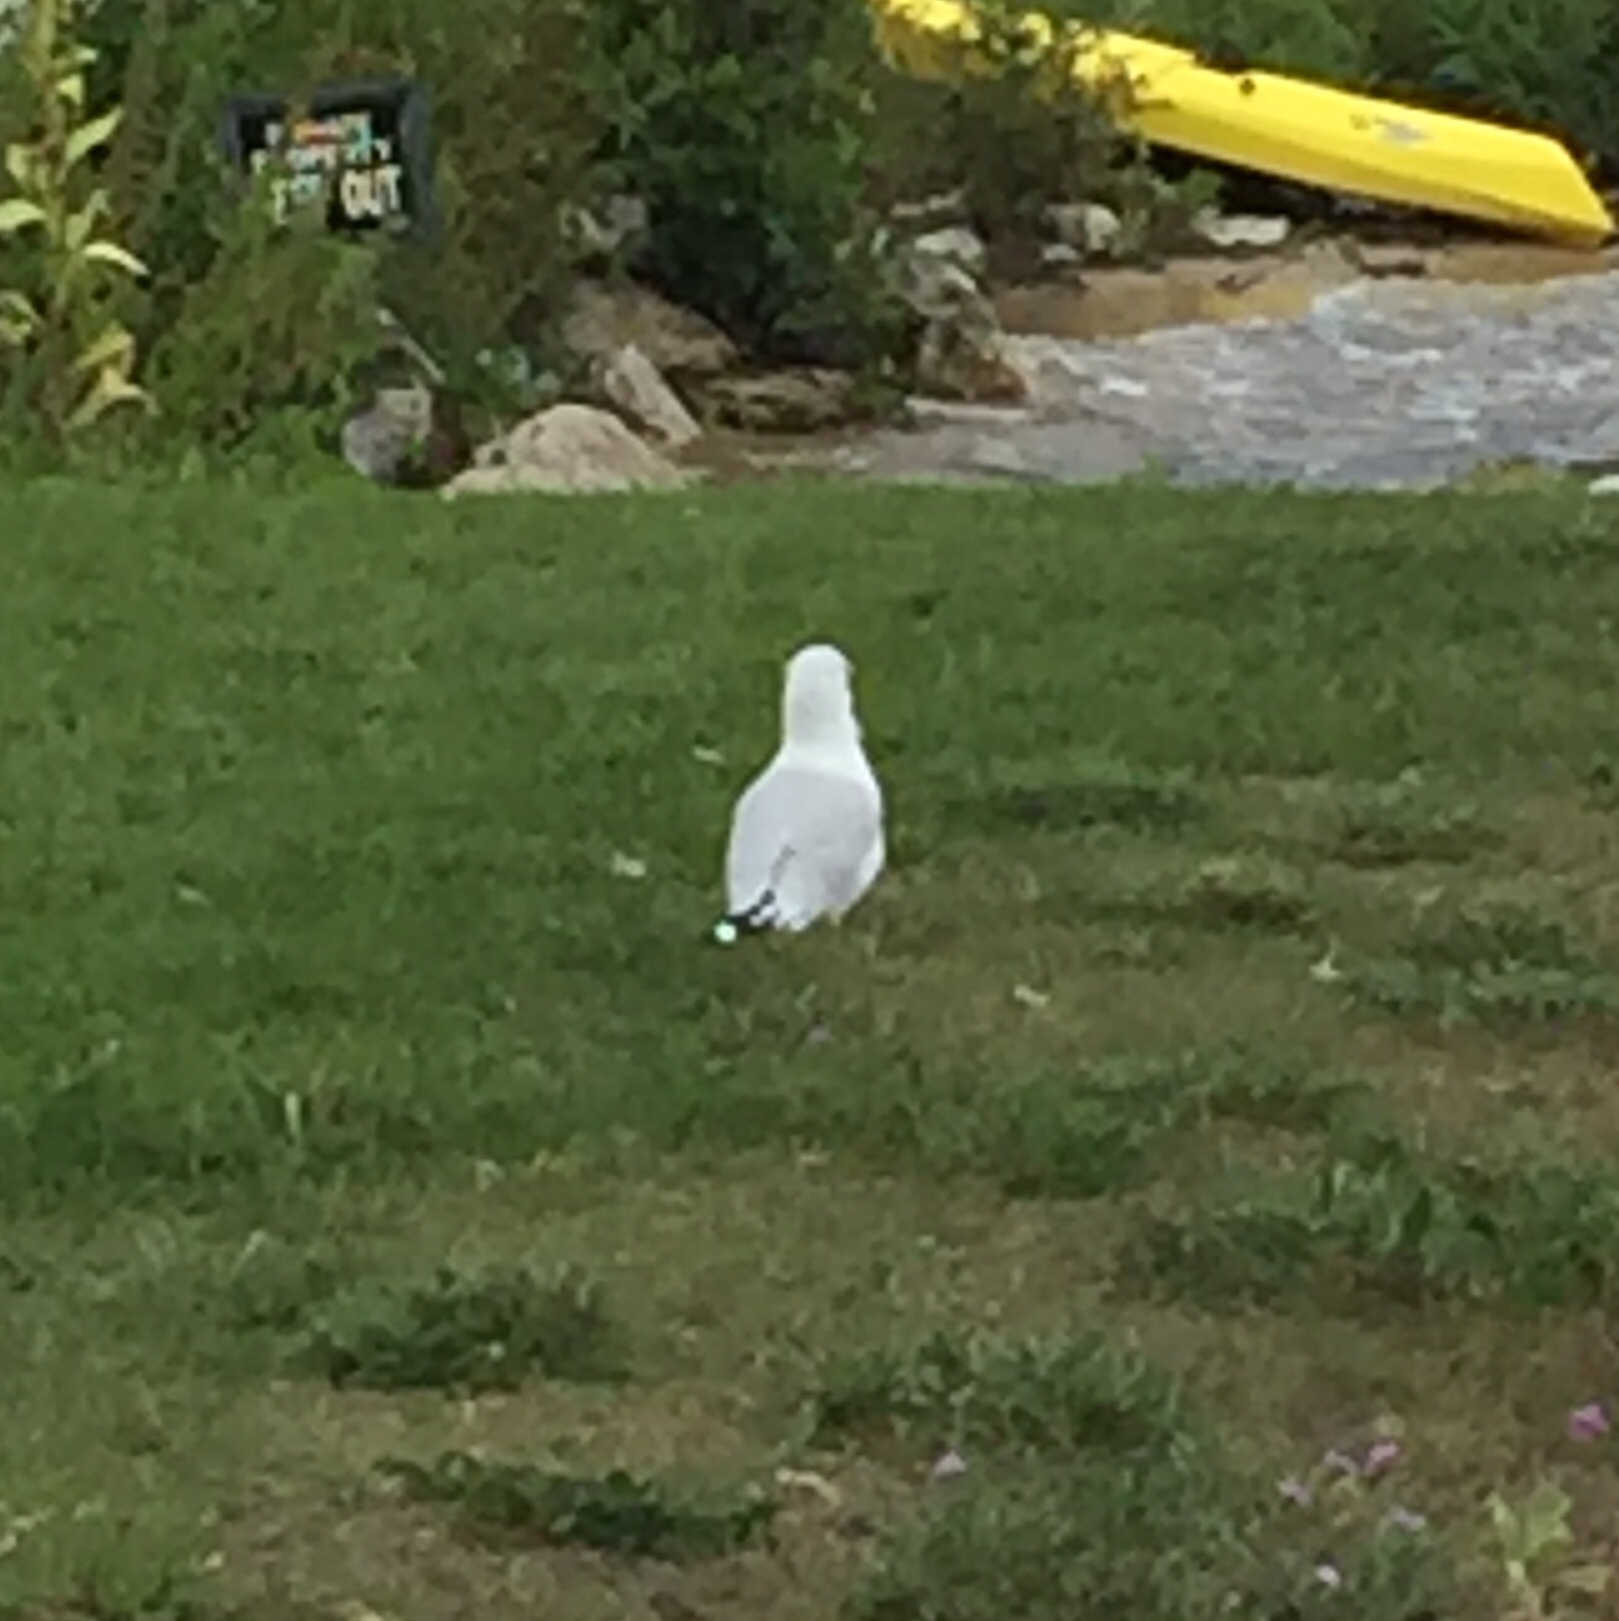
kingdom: Animalia
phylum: Chordata
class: Aves
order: Charadriiformes
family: Laridae
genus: Larus
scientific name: Larus delawarensis
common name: Ring-billed gull
